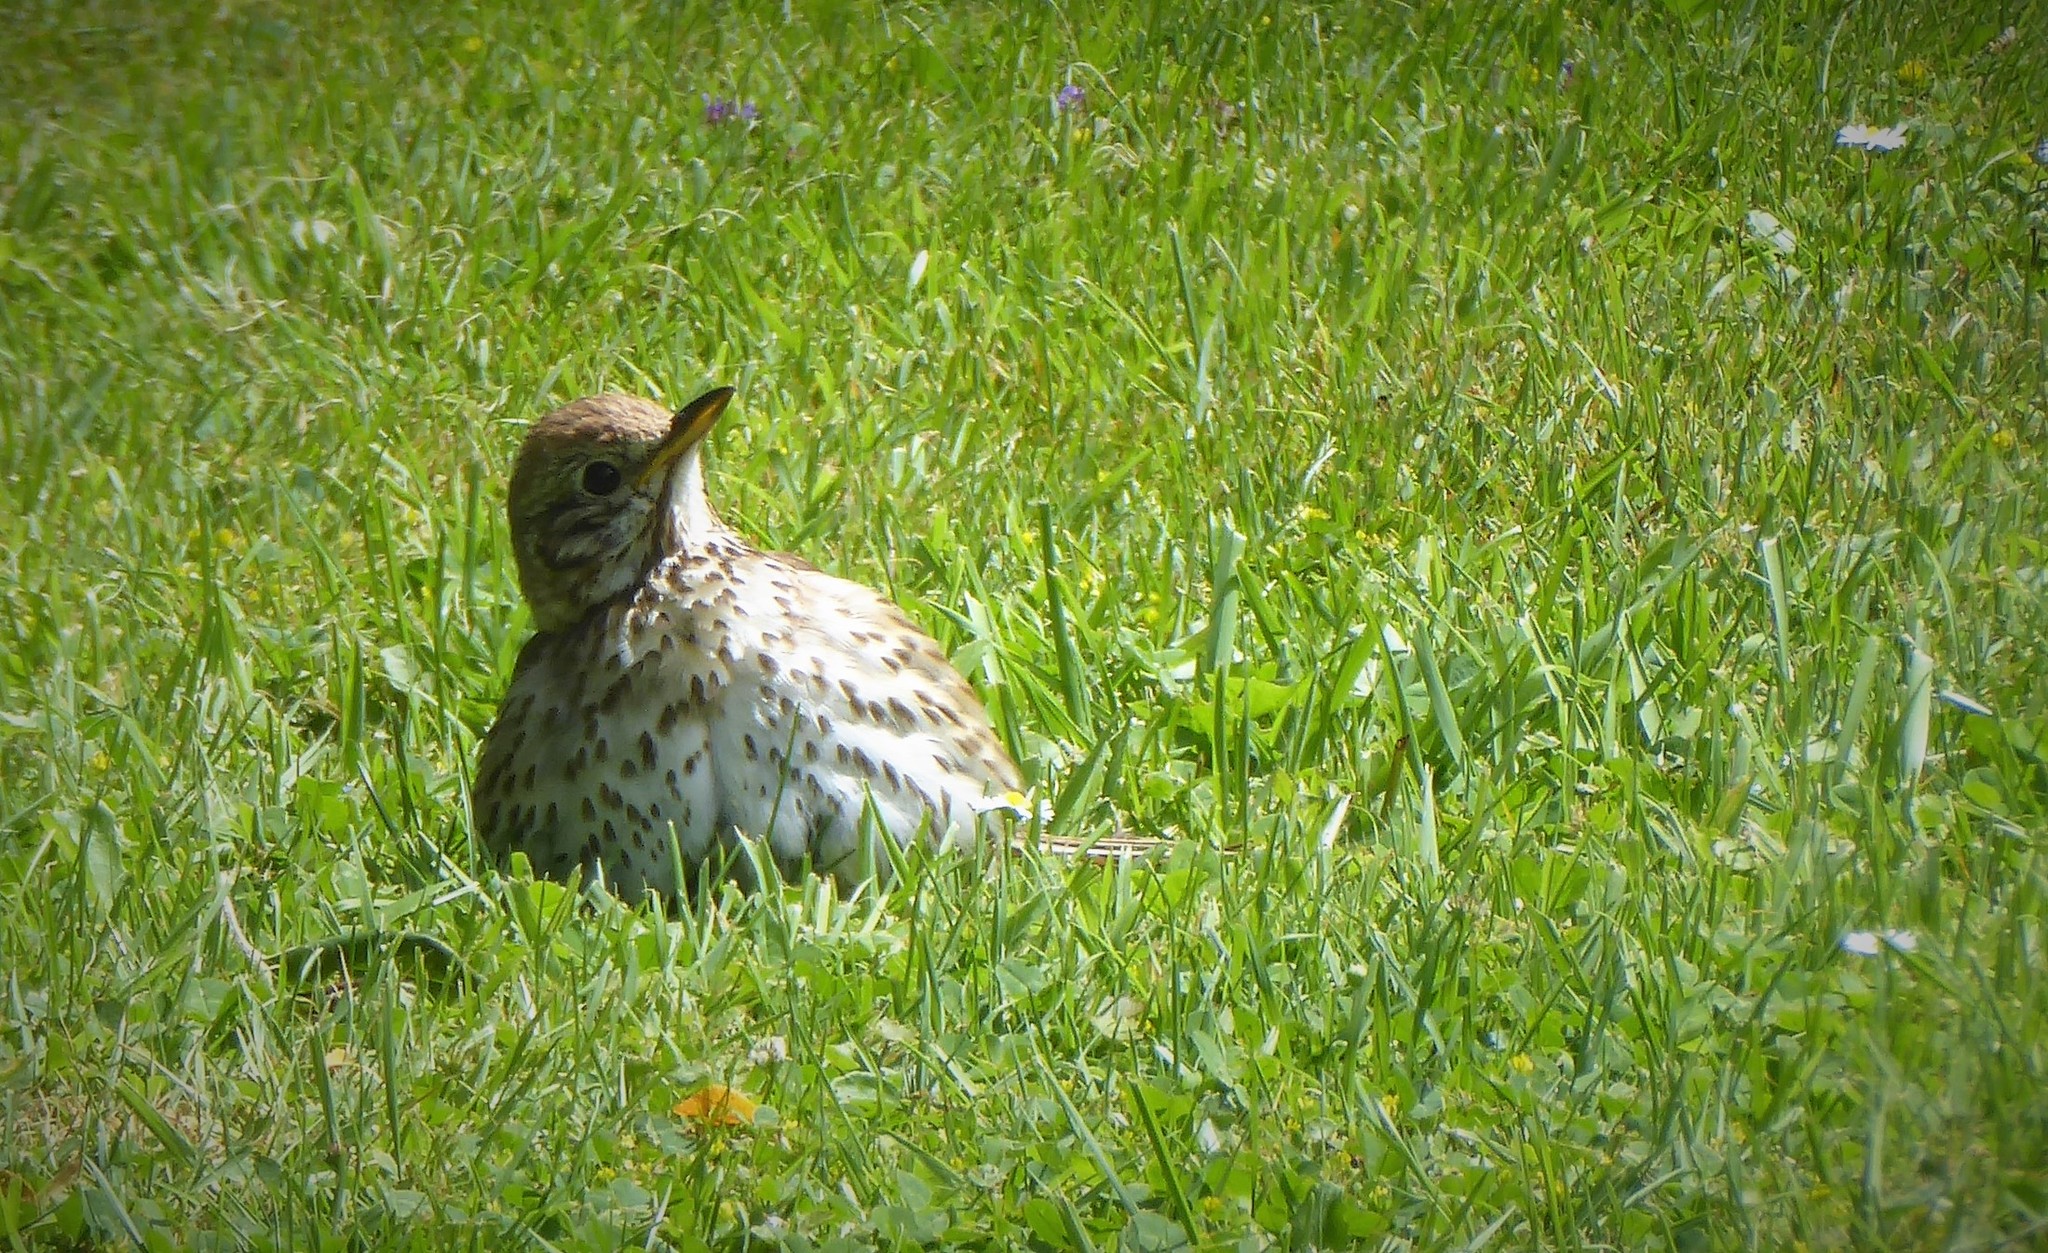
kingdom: Animalia
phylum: Chordata
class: Aves
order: Passeriformes
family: Turdidae
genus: Turdus
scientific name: Turdus philomelos
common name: Song thrush
